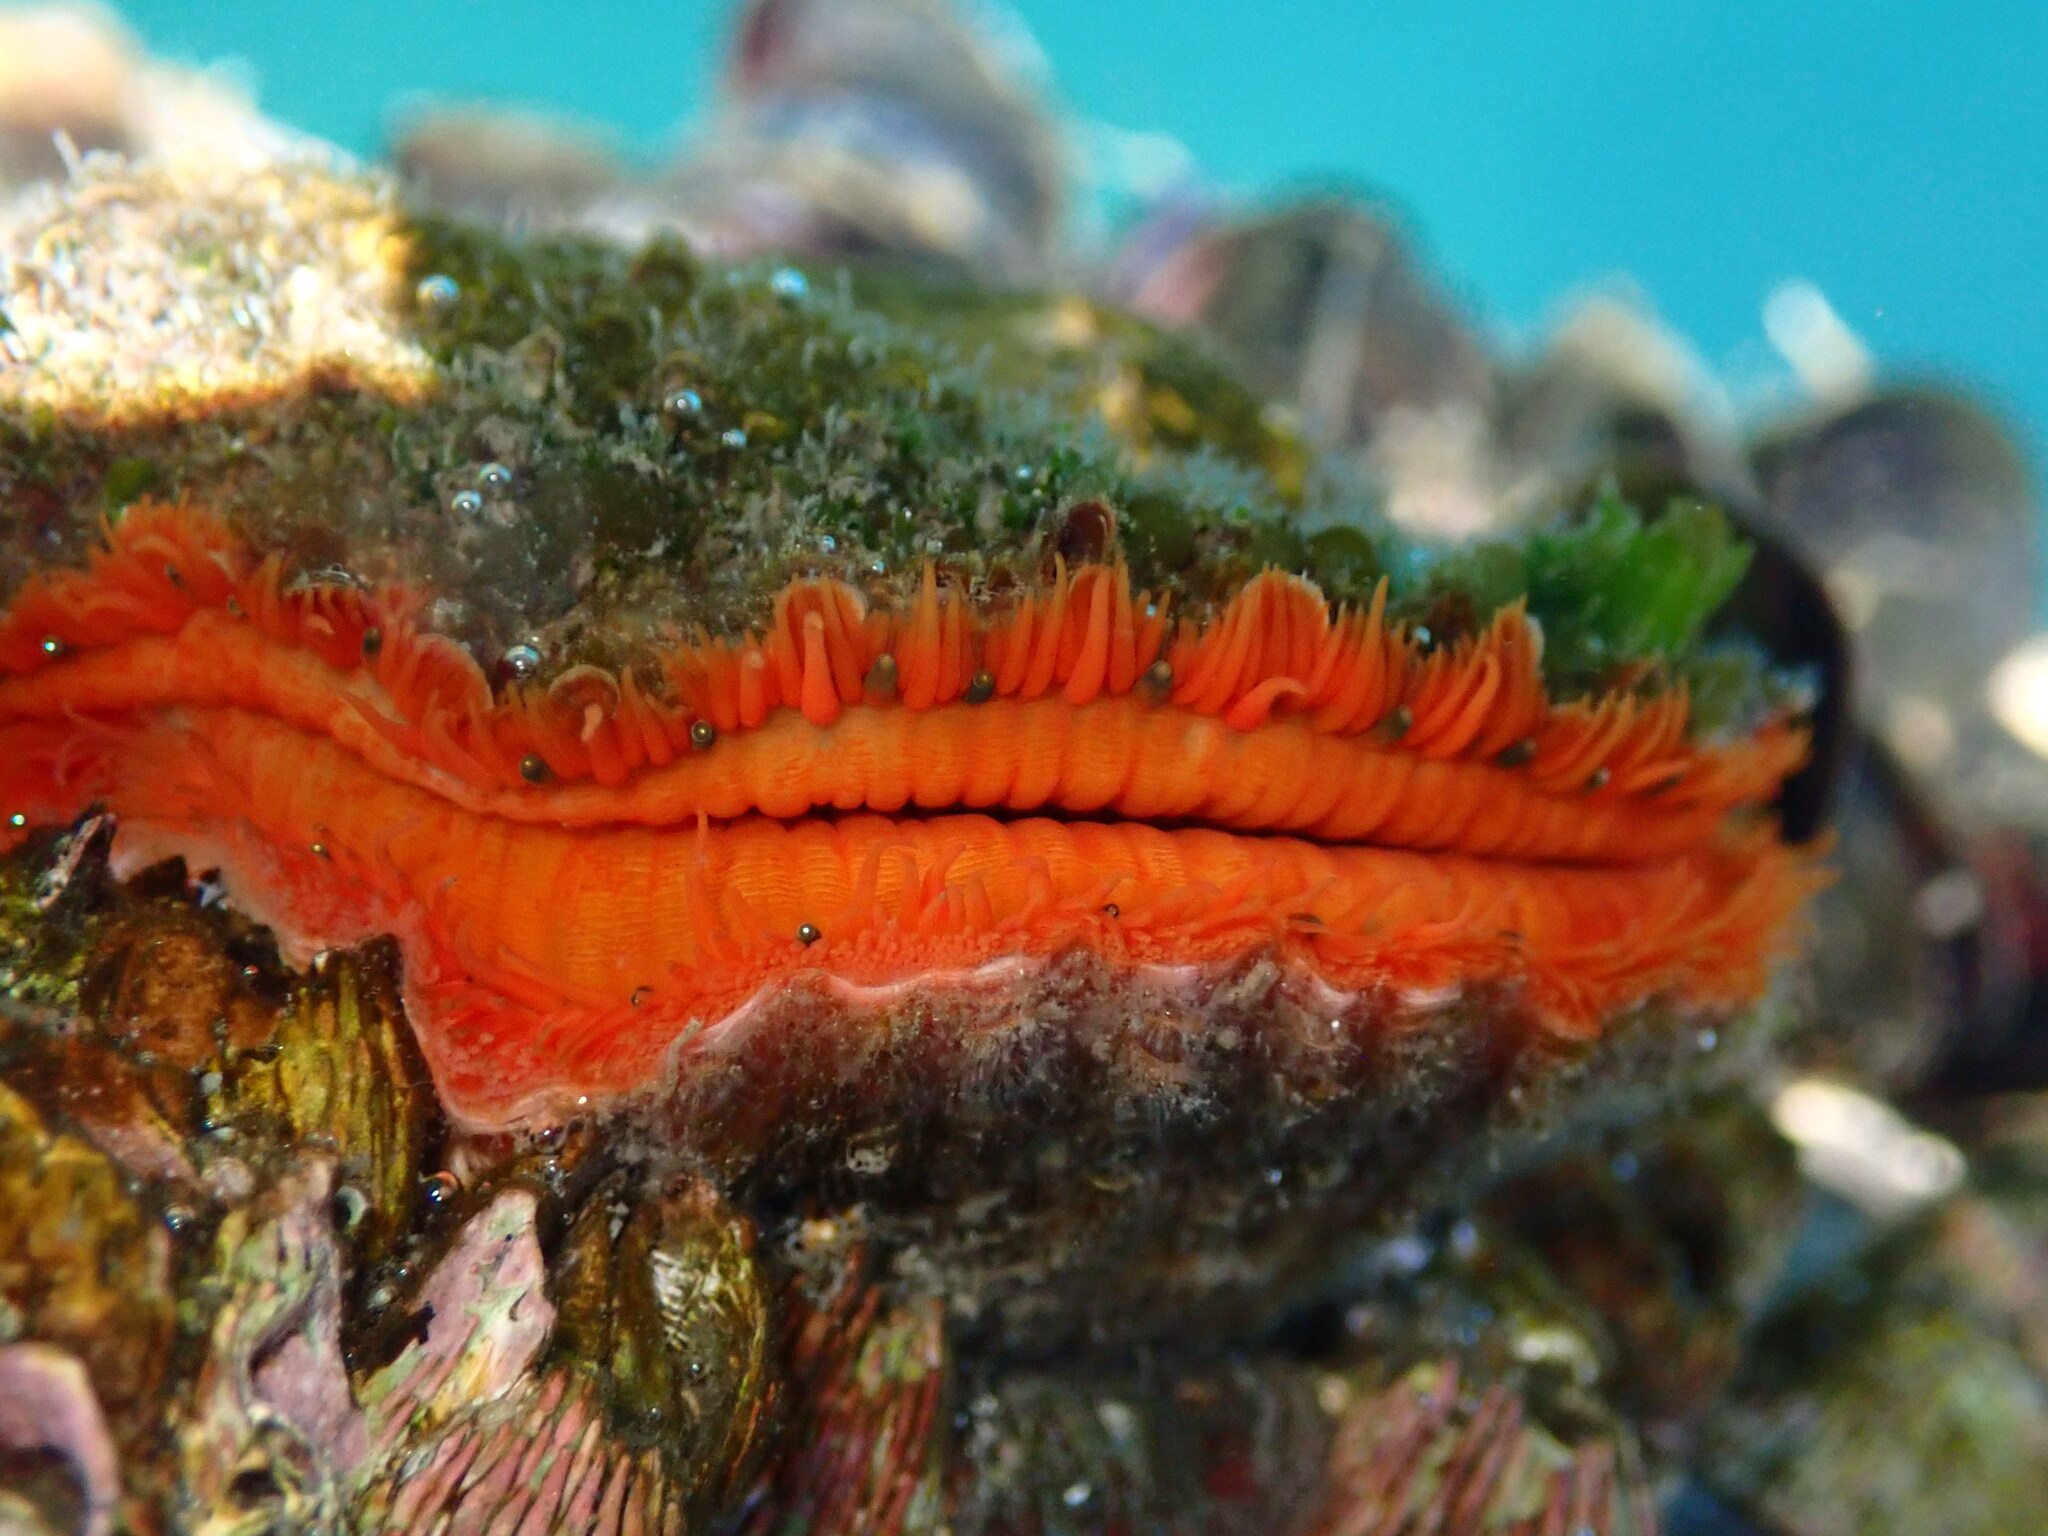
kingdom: Animalia
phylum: Mollusca
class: Bivalvia
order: Pectinida
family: Pectinidae
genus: Crassadoma
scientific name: Crassadoma gigantea
